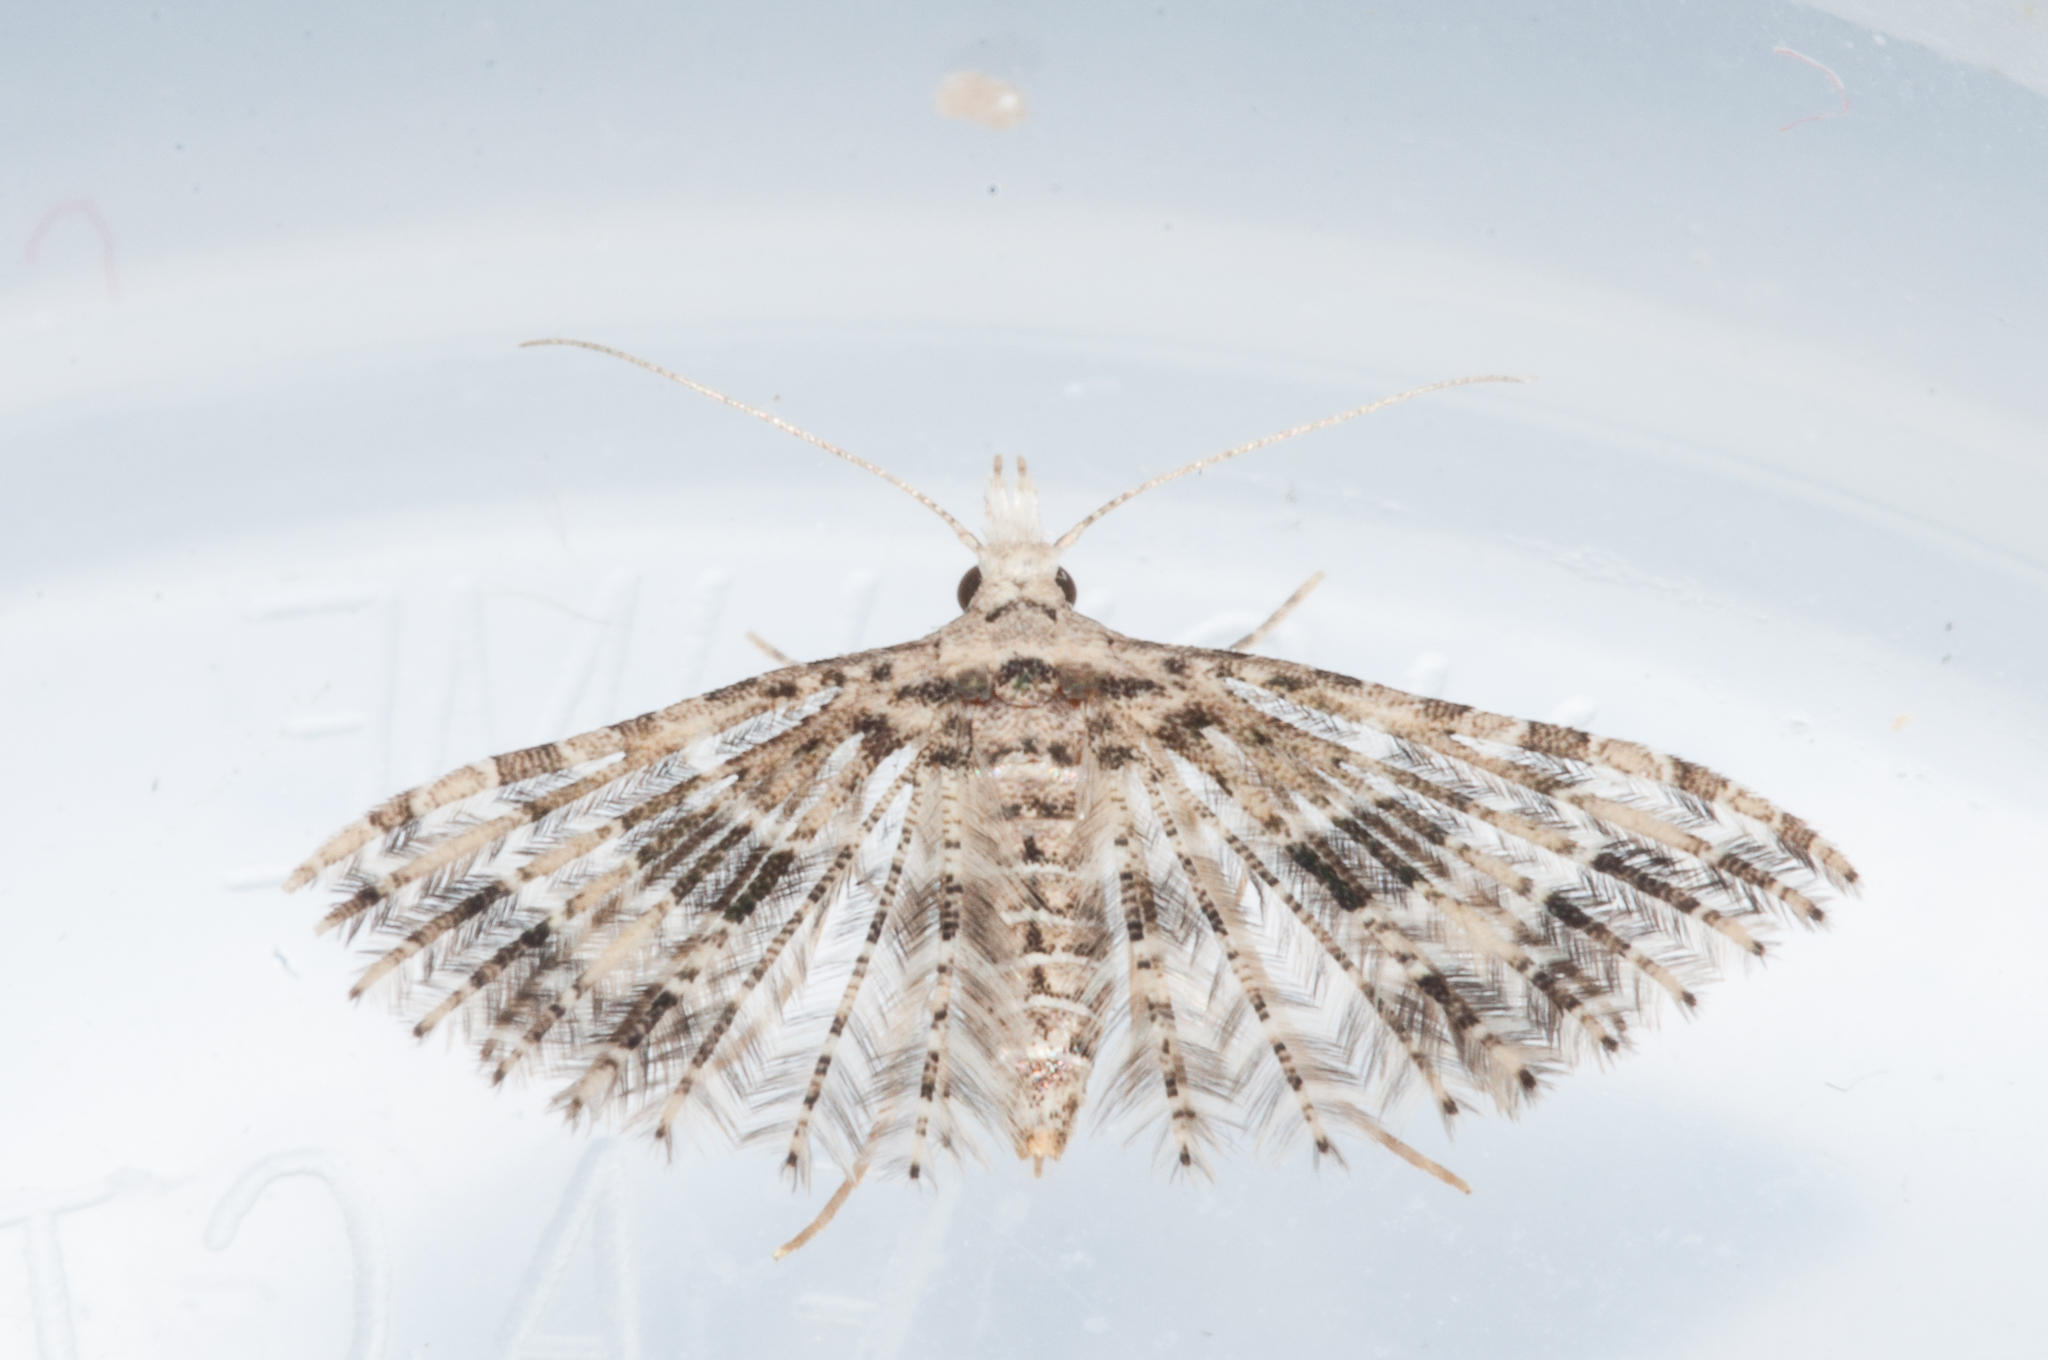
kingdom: Animalia
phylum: Arthropoda
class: Insecta
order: Lepidoptera
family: Alucitidae
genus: Alucita
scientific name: Alucita spicifera
